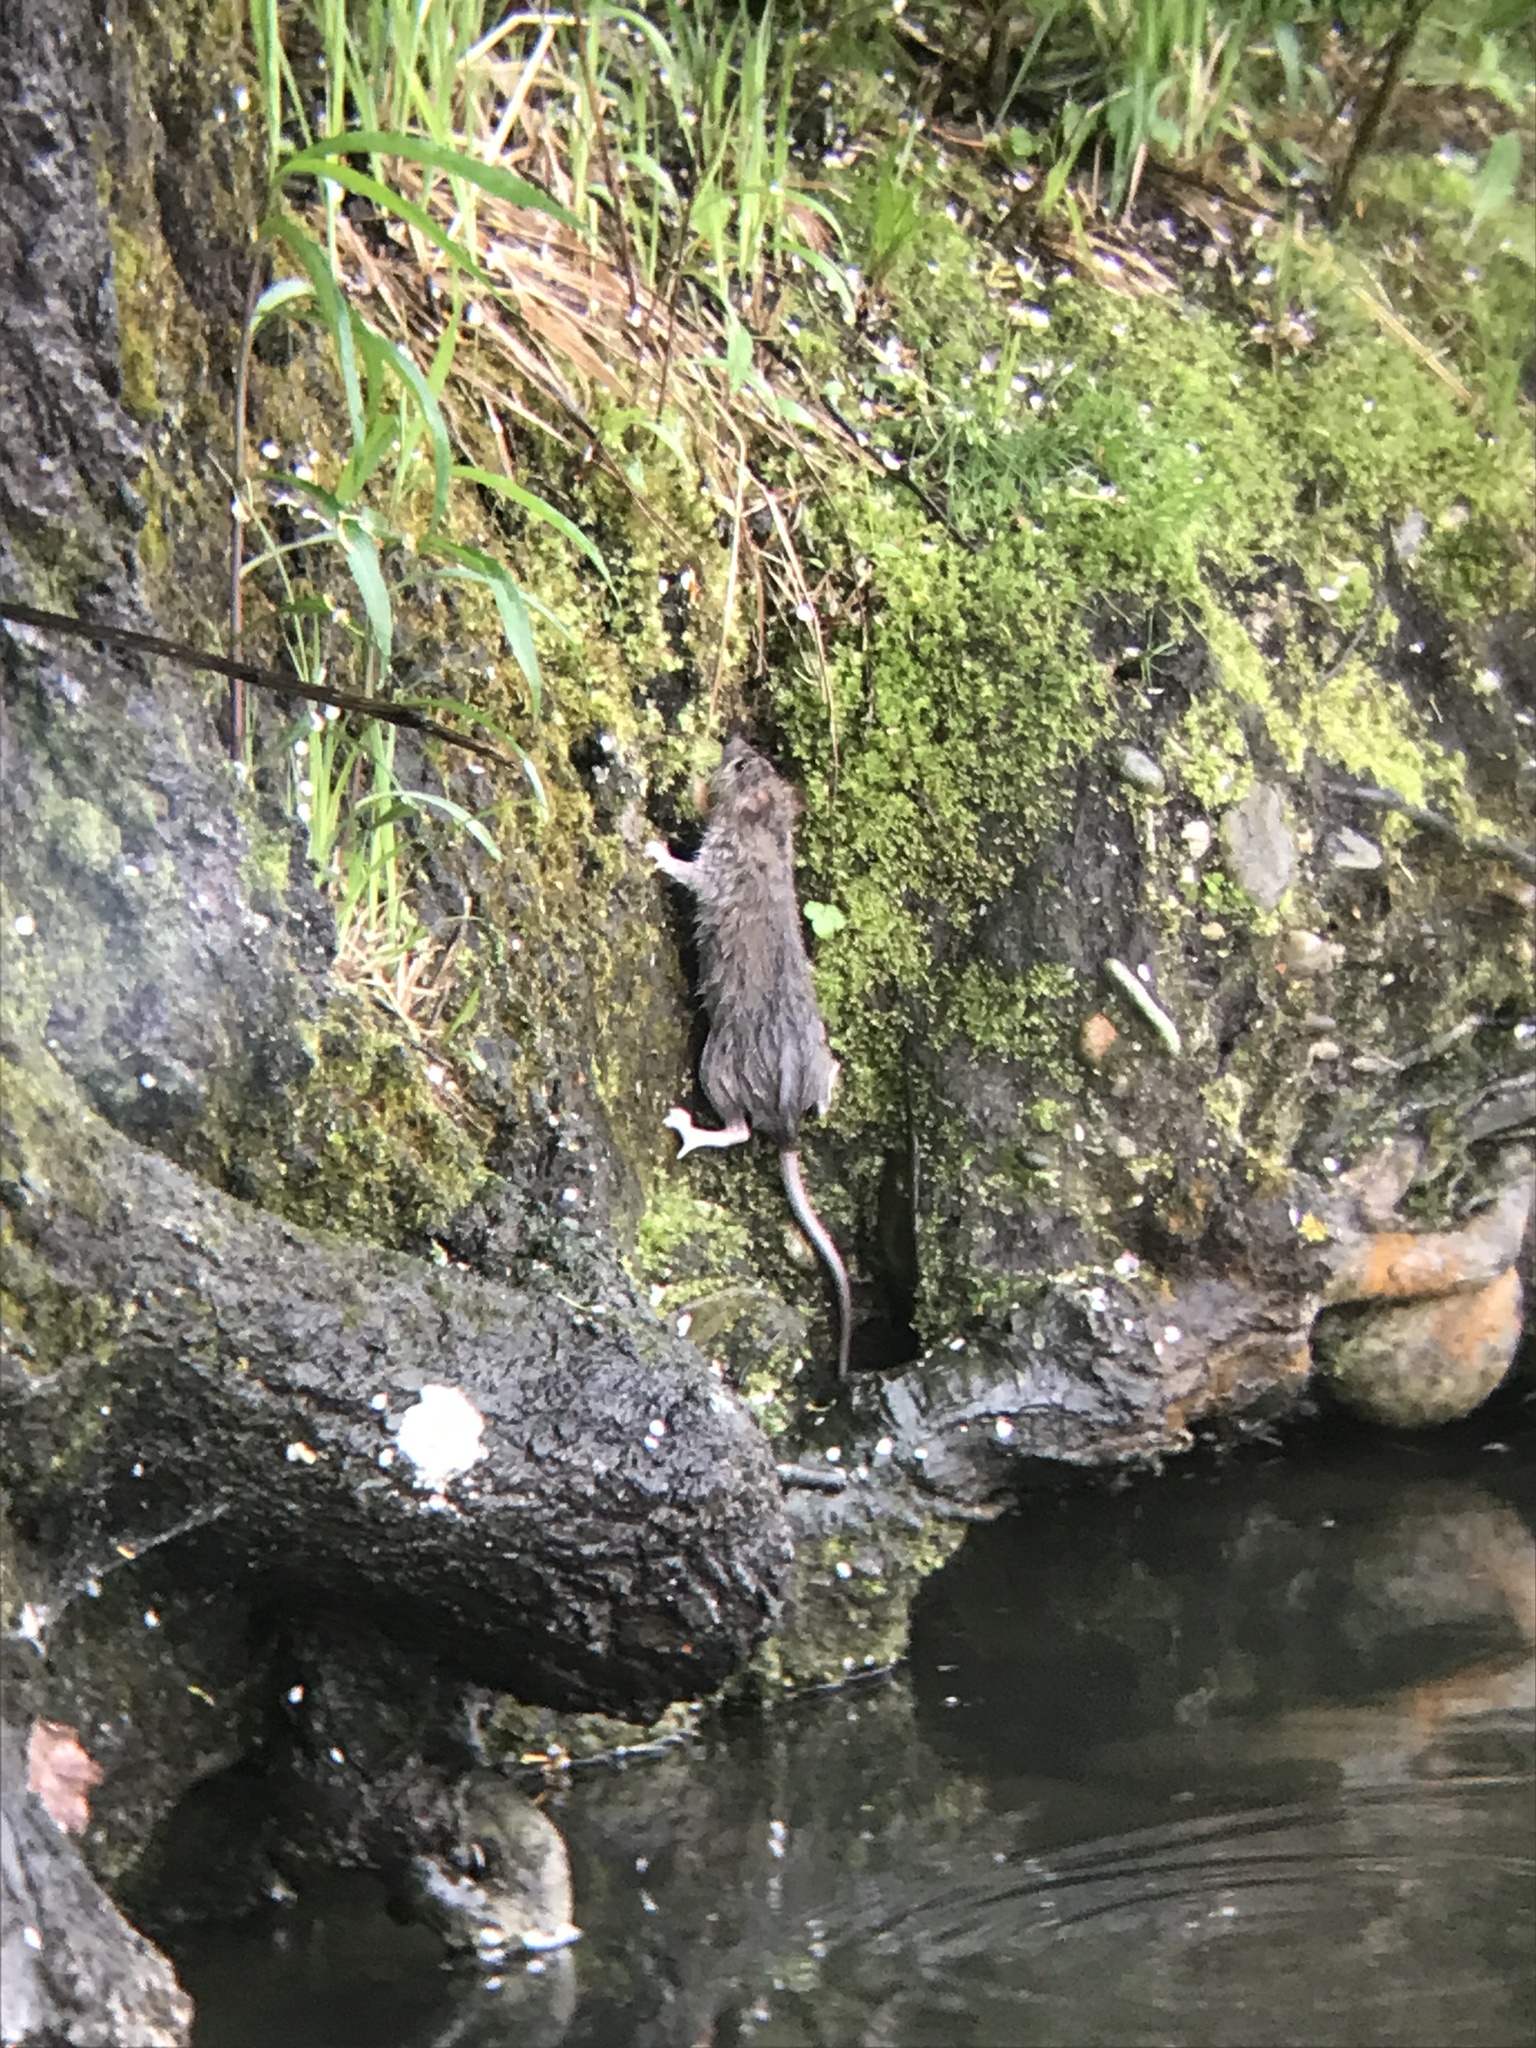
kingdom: Animalia
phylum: Chordata
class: Mammalia
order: Rodentia
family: Muridae
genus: Rattus
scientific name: Rattus norvegicus
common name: Brown rat
